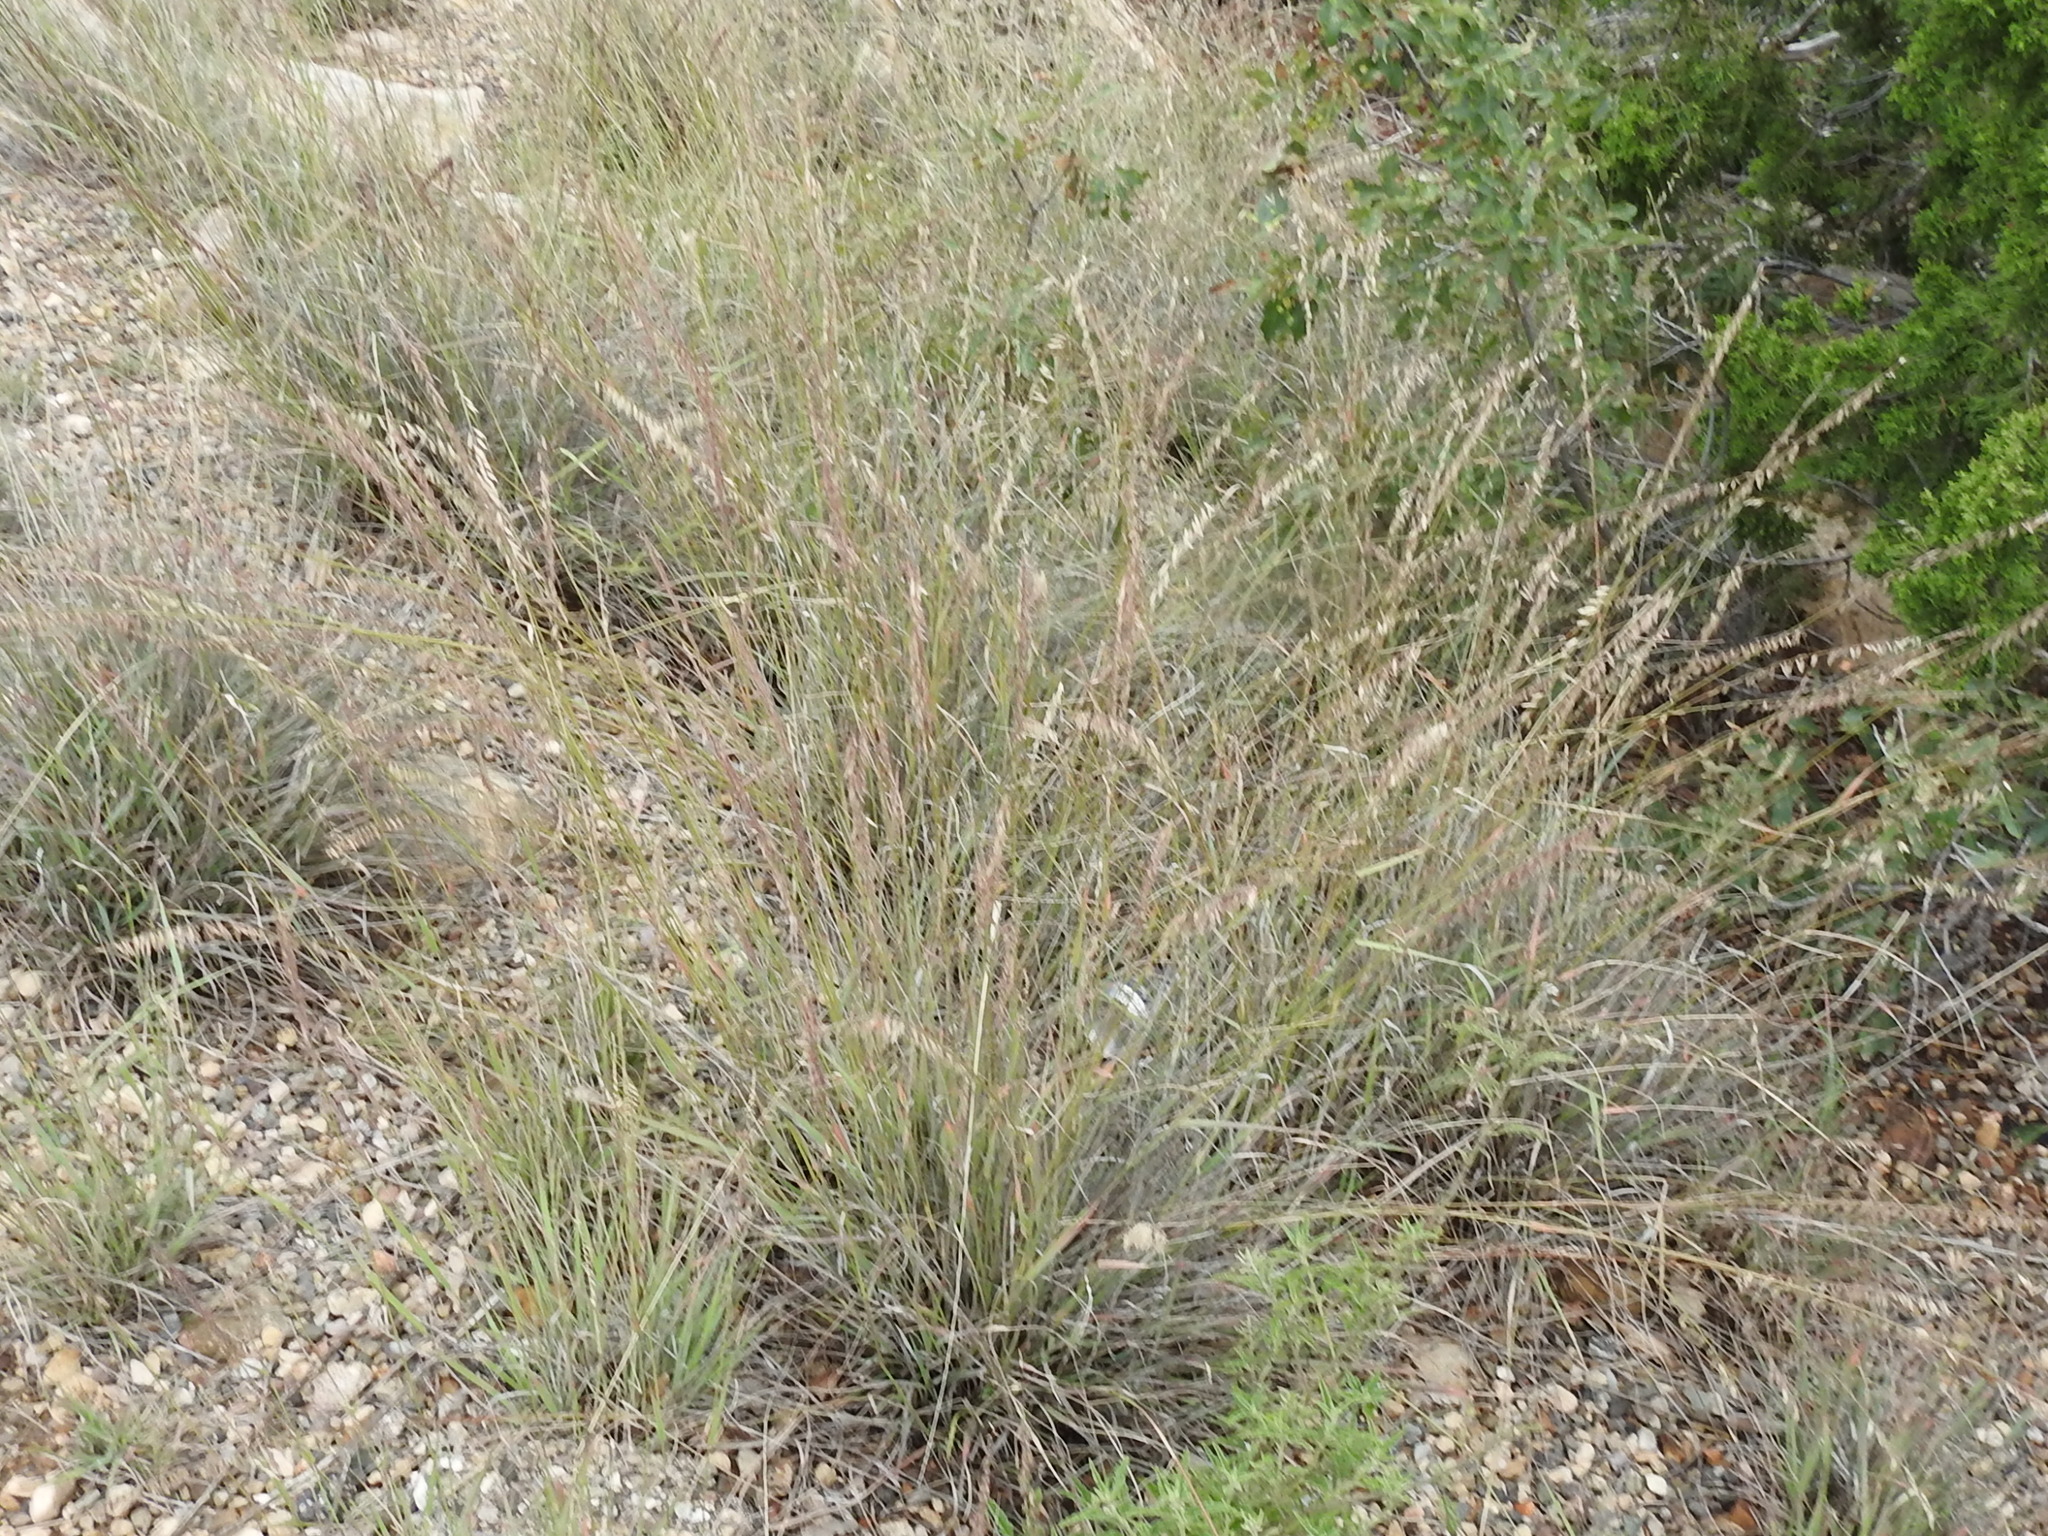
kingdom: Plantae
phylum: Tracheophyta
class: Liliopsida
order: Poales
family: Poaceae
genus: Bouteloua
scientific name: Bouteloua curtipendula
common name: Side-oats grama
